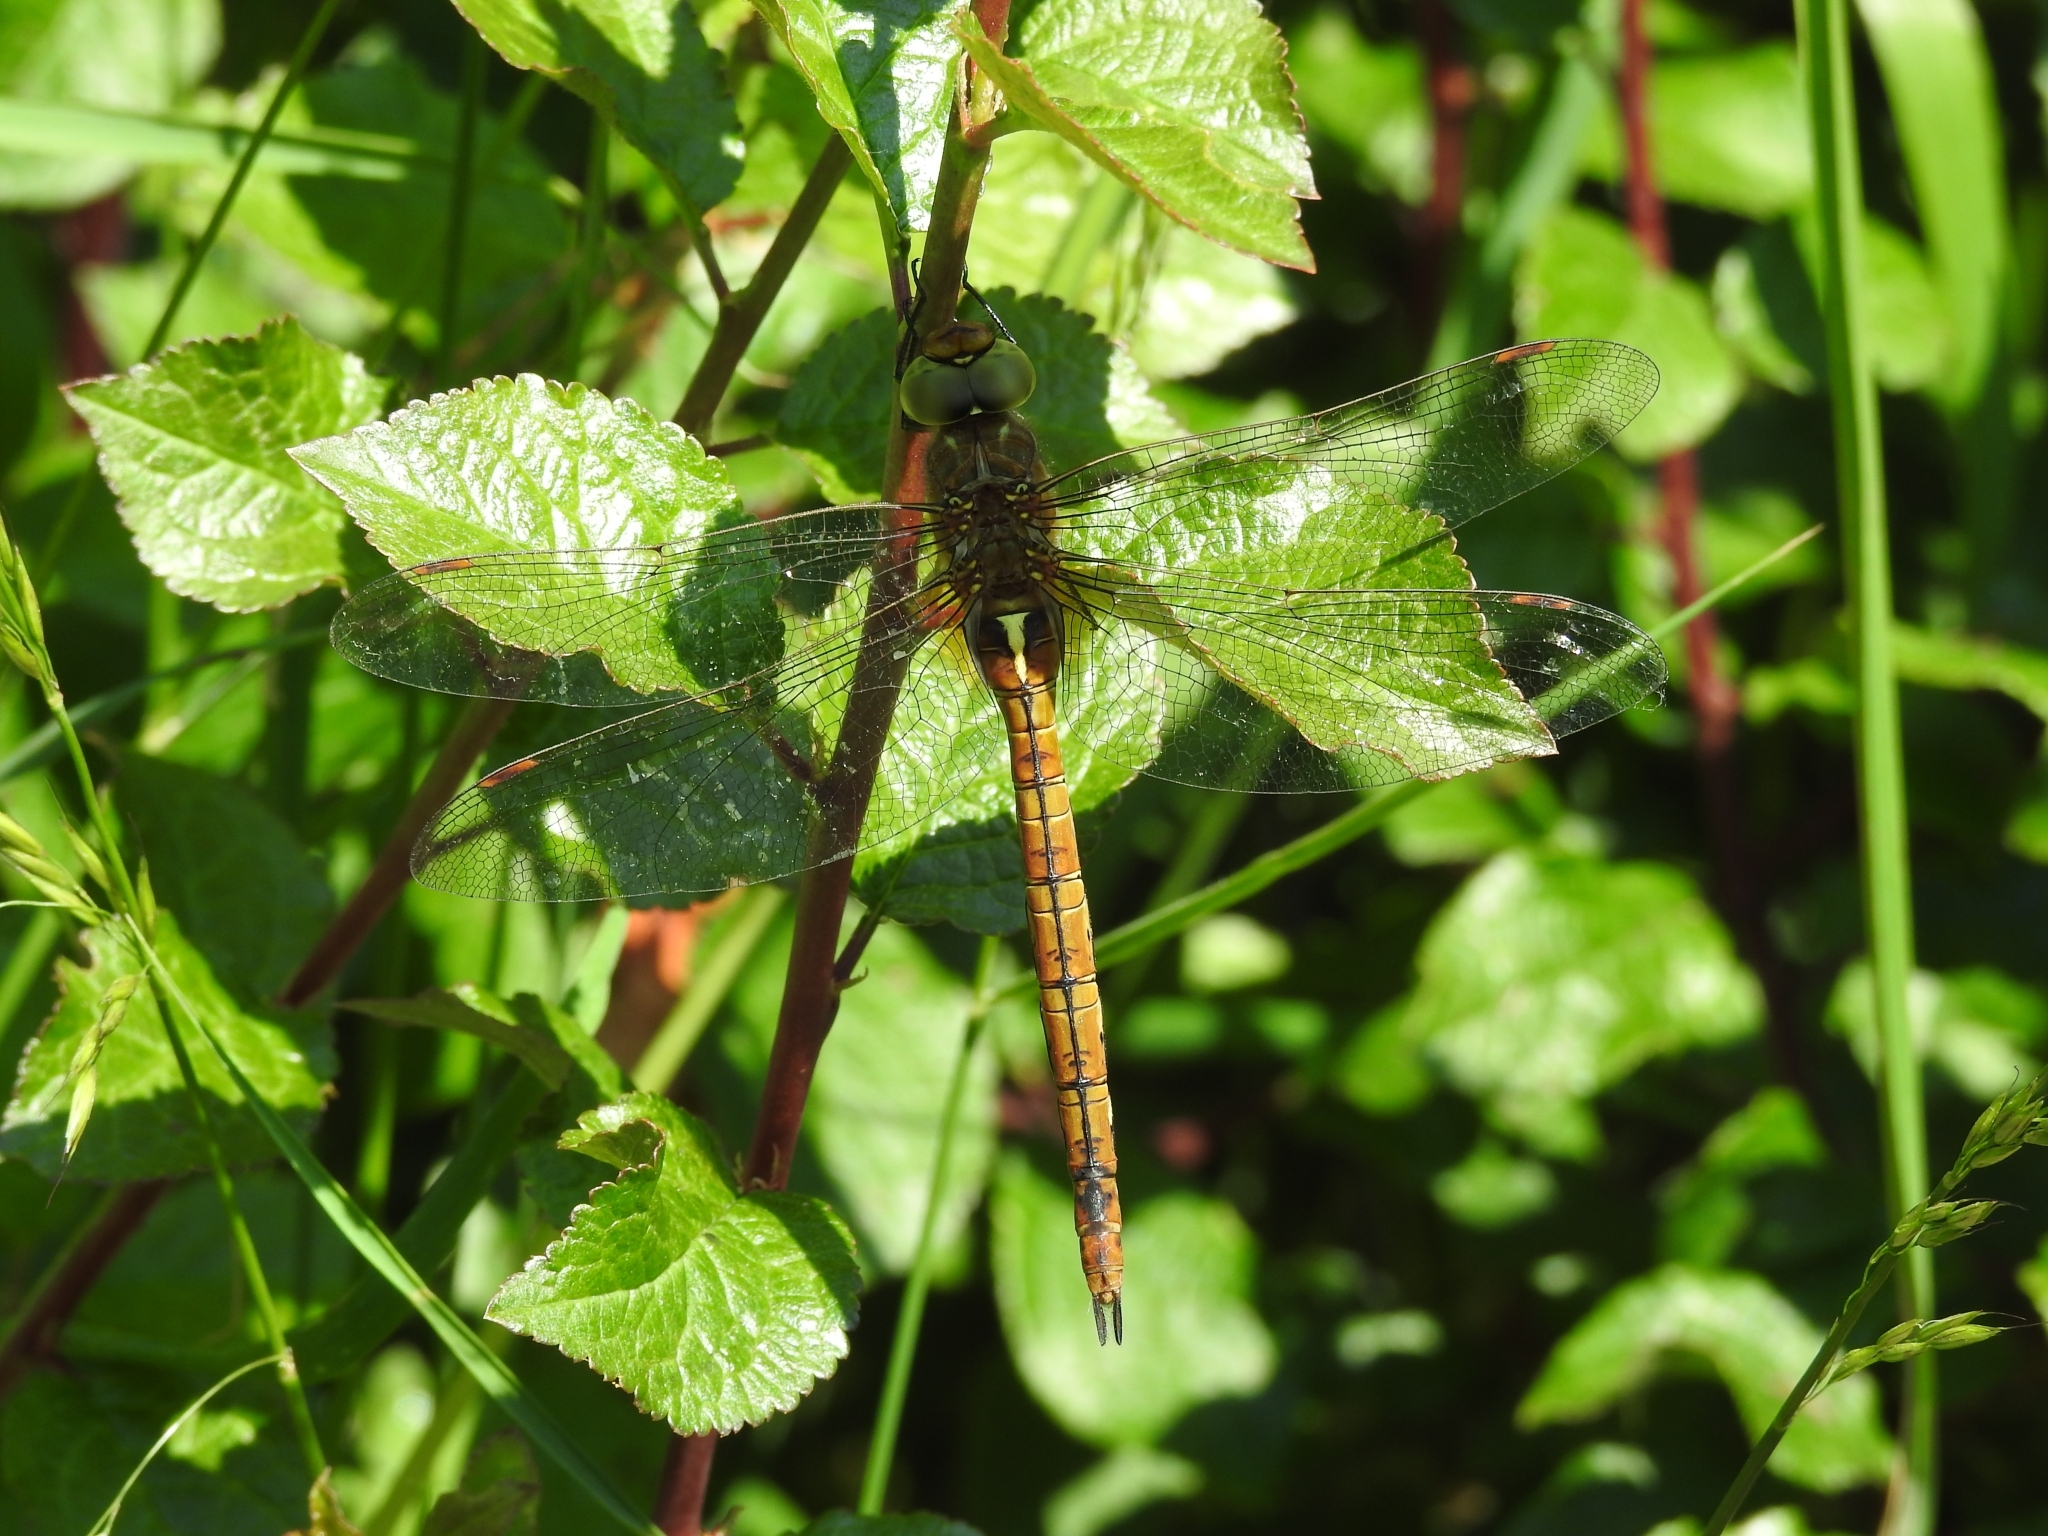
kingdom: Animalia
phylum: Arthropoda
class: Insecta
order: Odonata
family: Aeshnidae
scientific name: Aeshnidae
